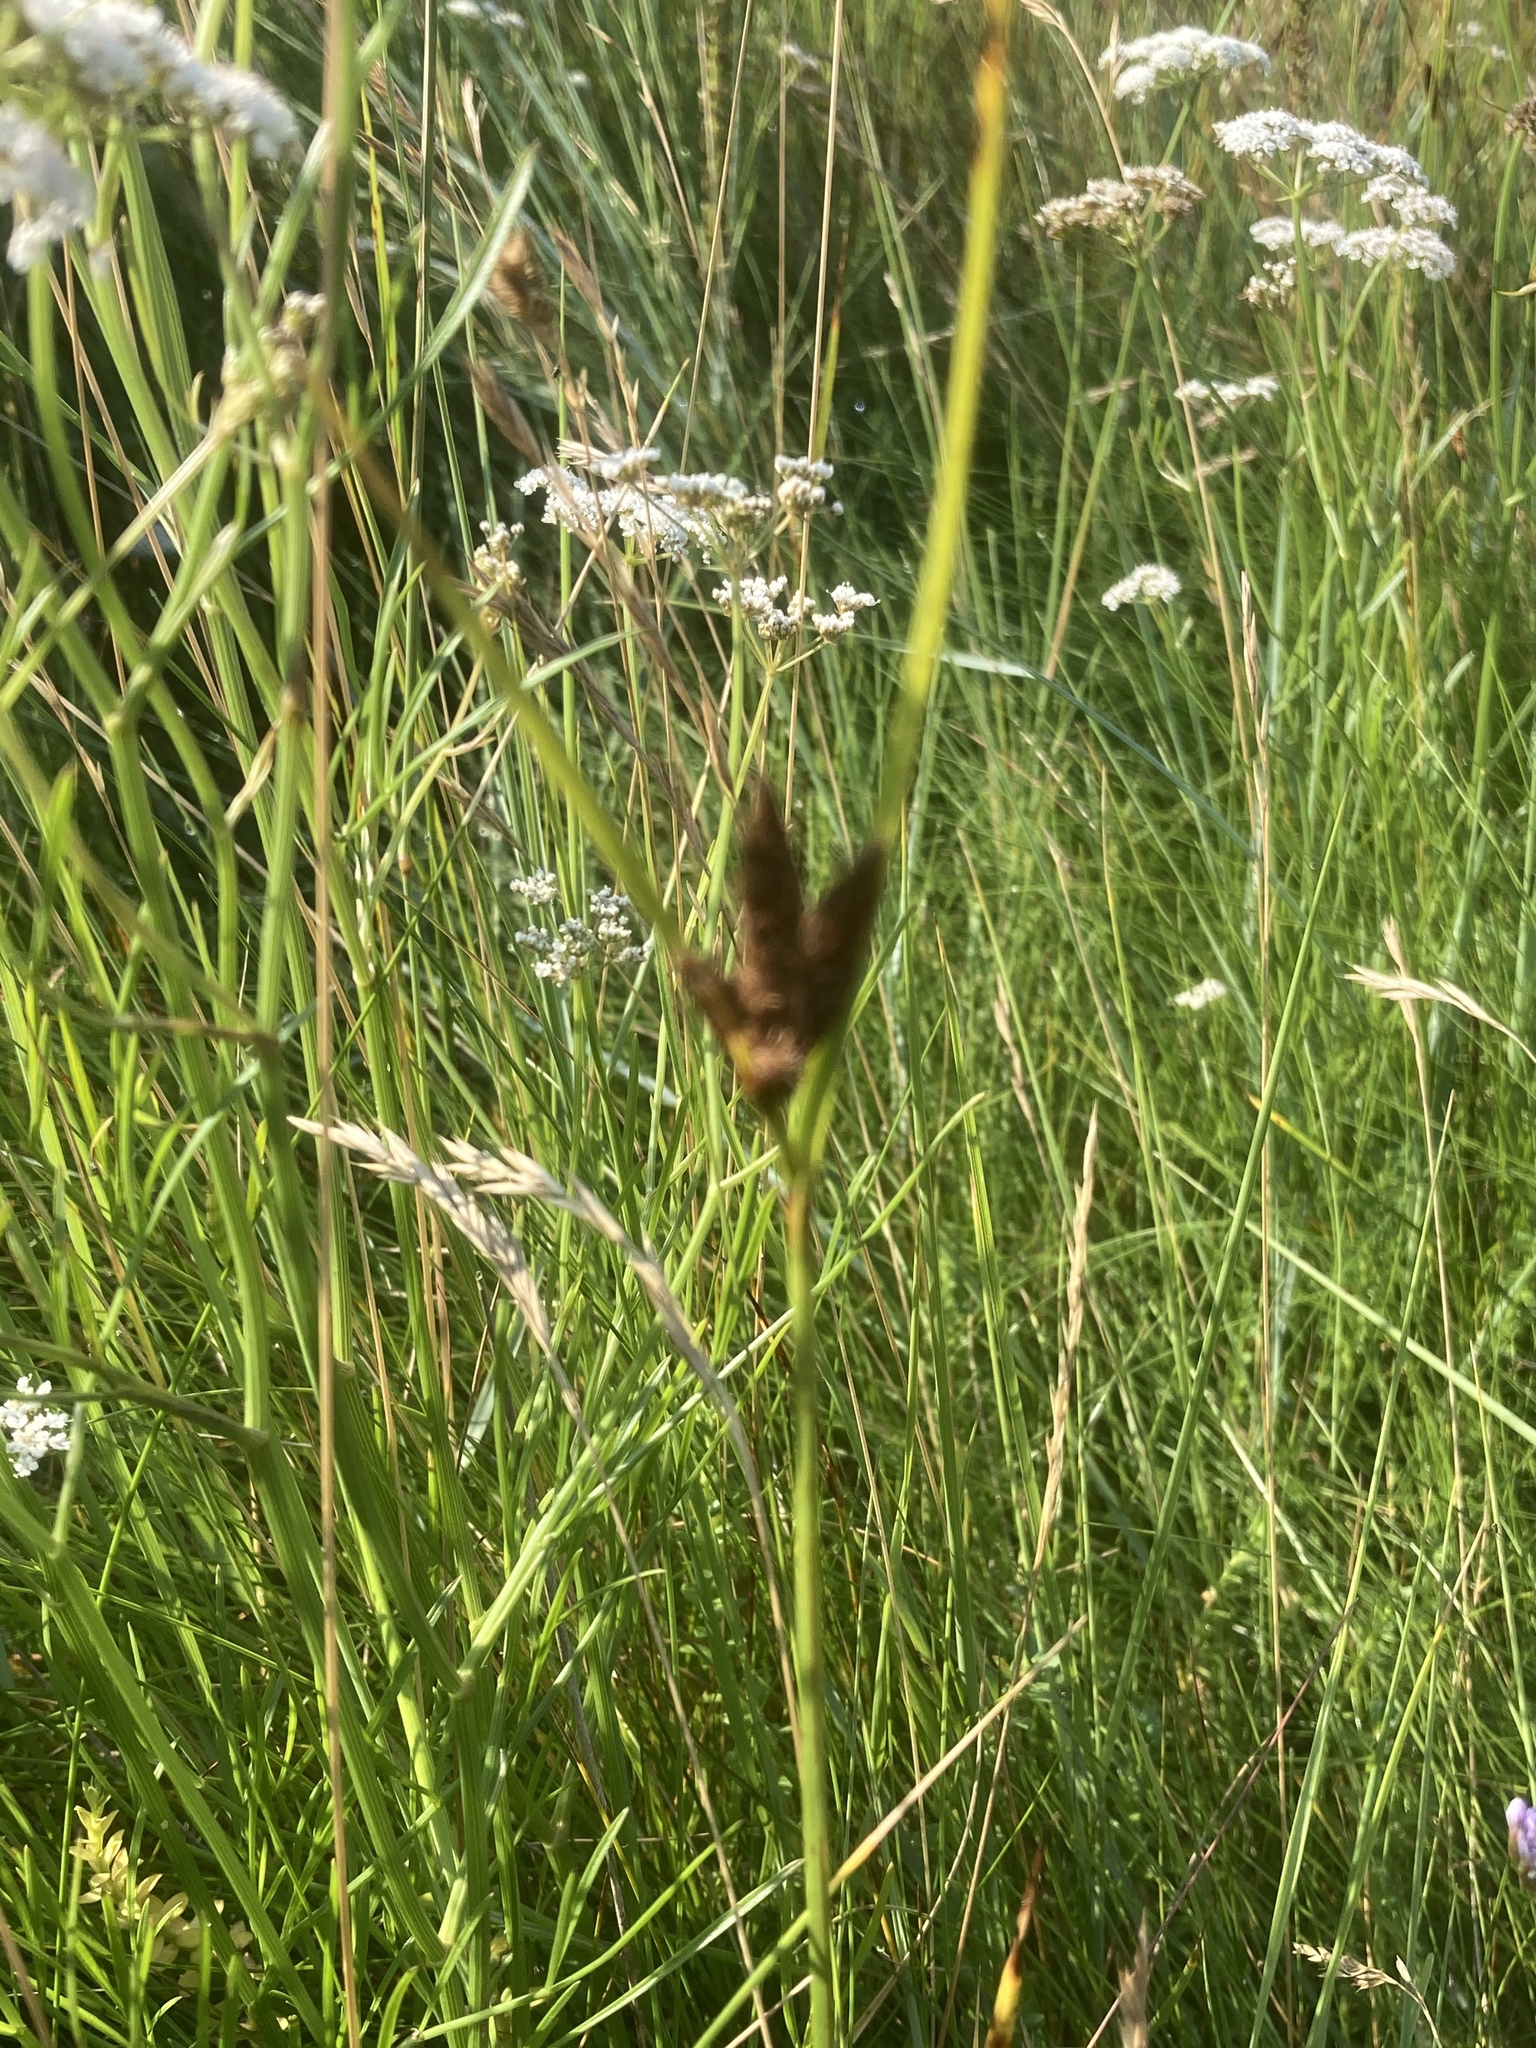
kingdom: Plantae
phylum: Tracheophyta
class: Liliopsida
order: Poales
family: Cyperaceae
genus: Bolboschoenus
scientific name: Bolboschoenus maritimus
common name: Sea club-rush
